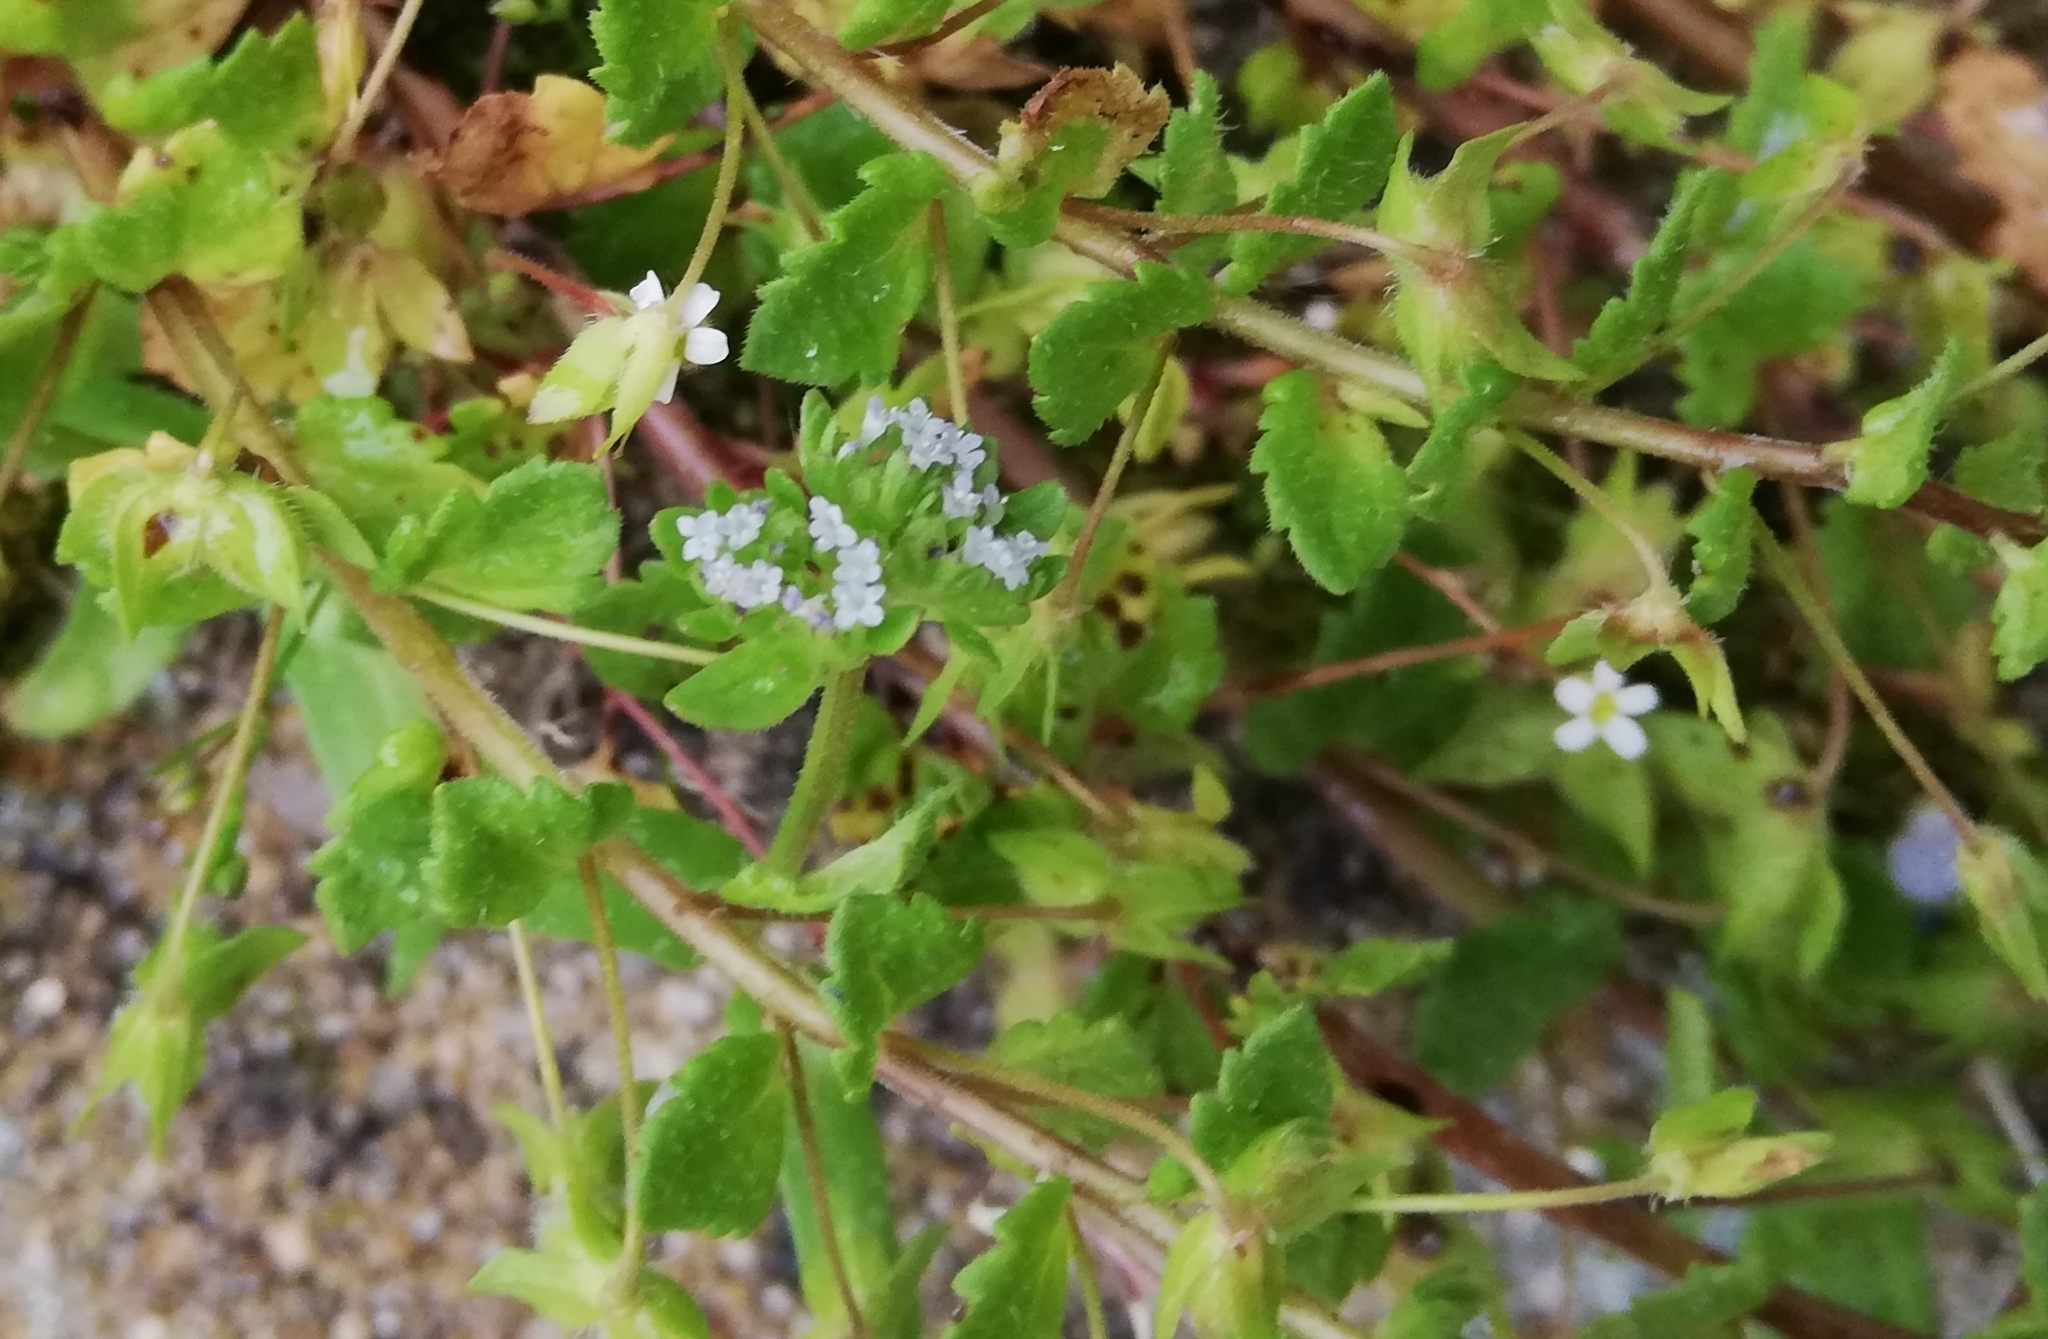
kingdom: Plantae
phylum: Tracheophyta
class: Magnoliopsida
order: Dipsacales
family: Caprifoliaceae
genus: Valerianella
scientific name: Valerianella locusta
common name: Common cornsalad
